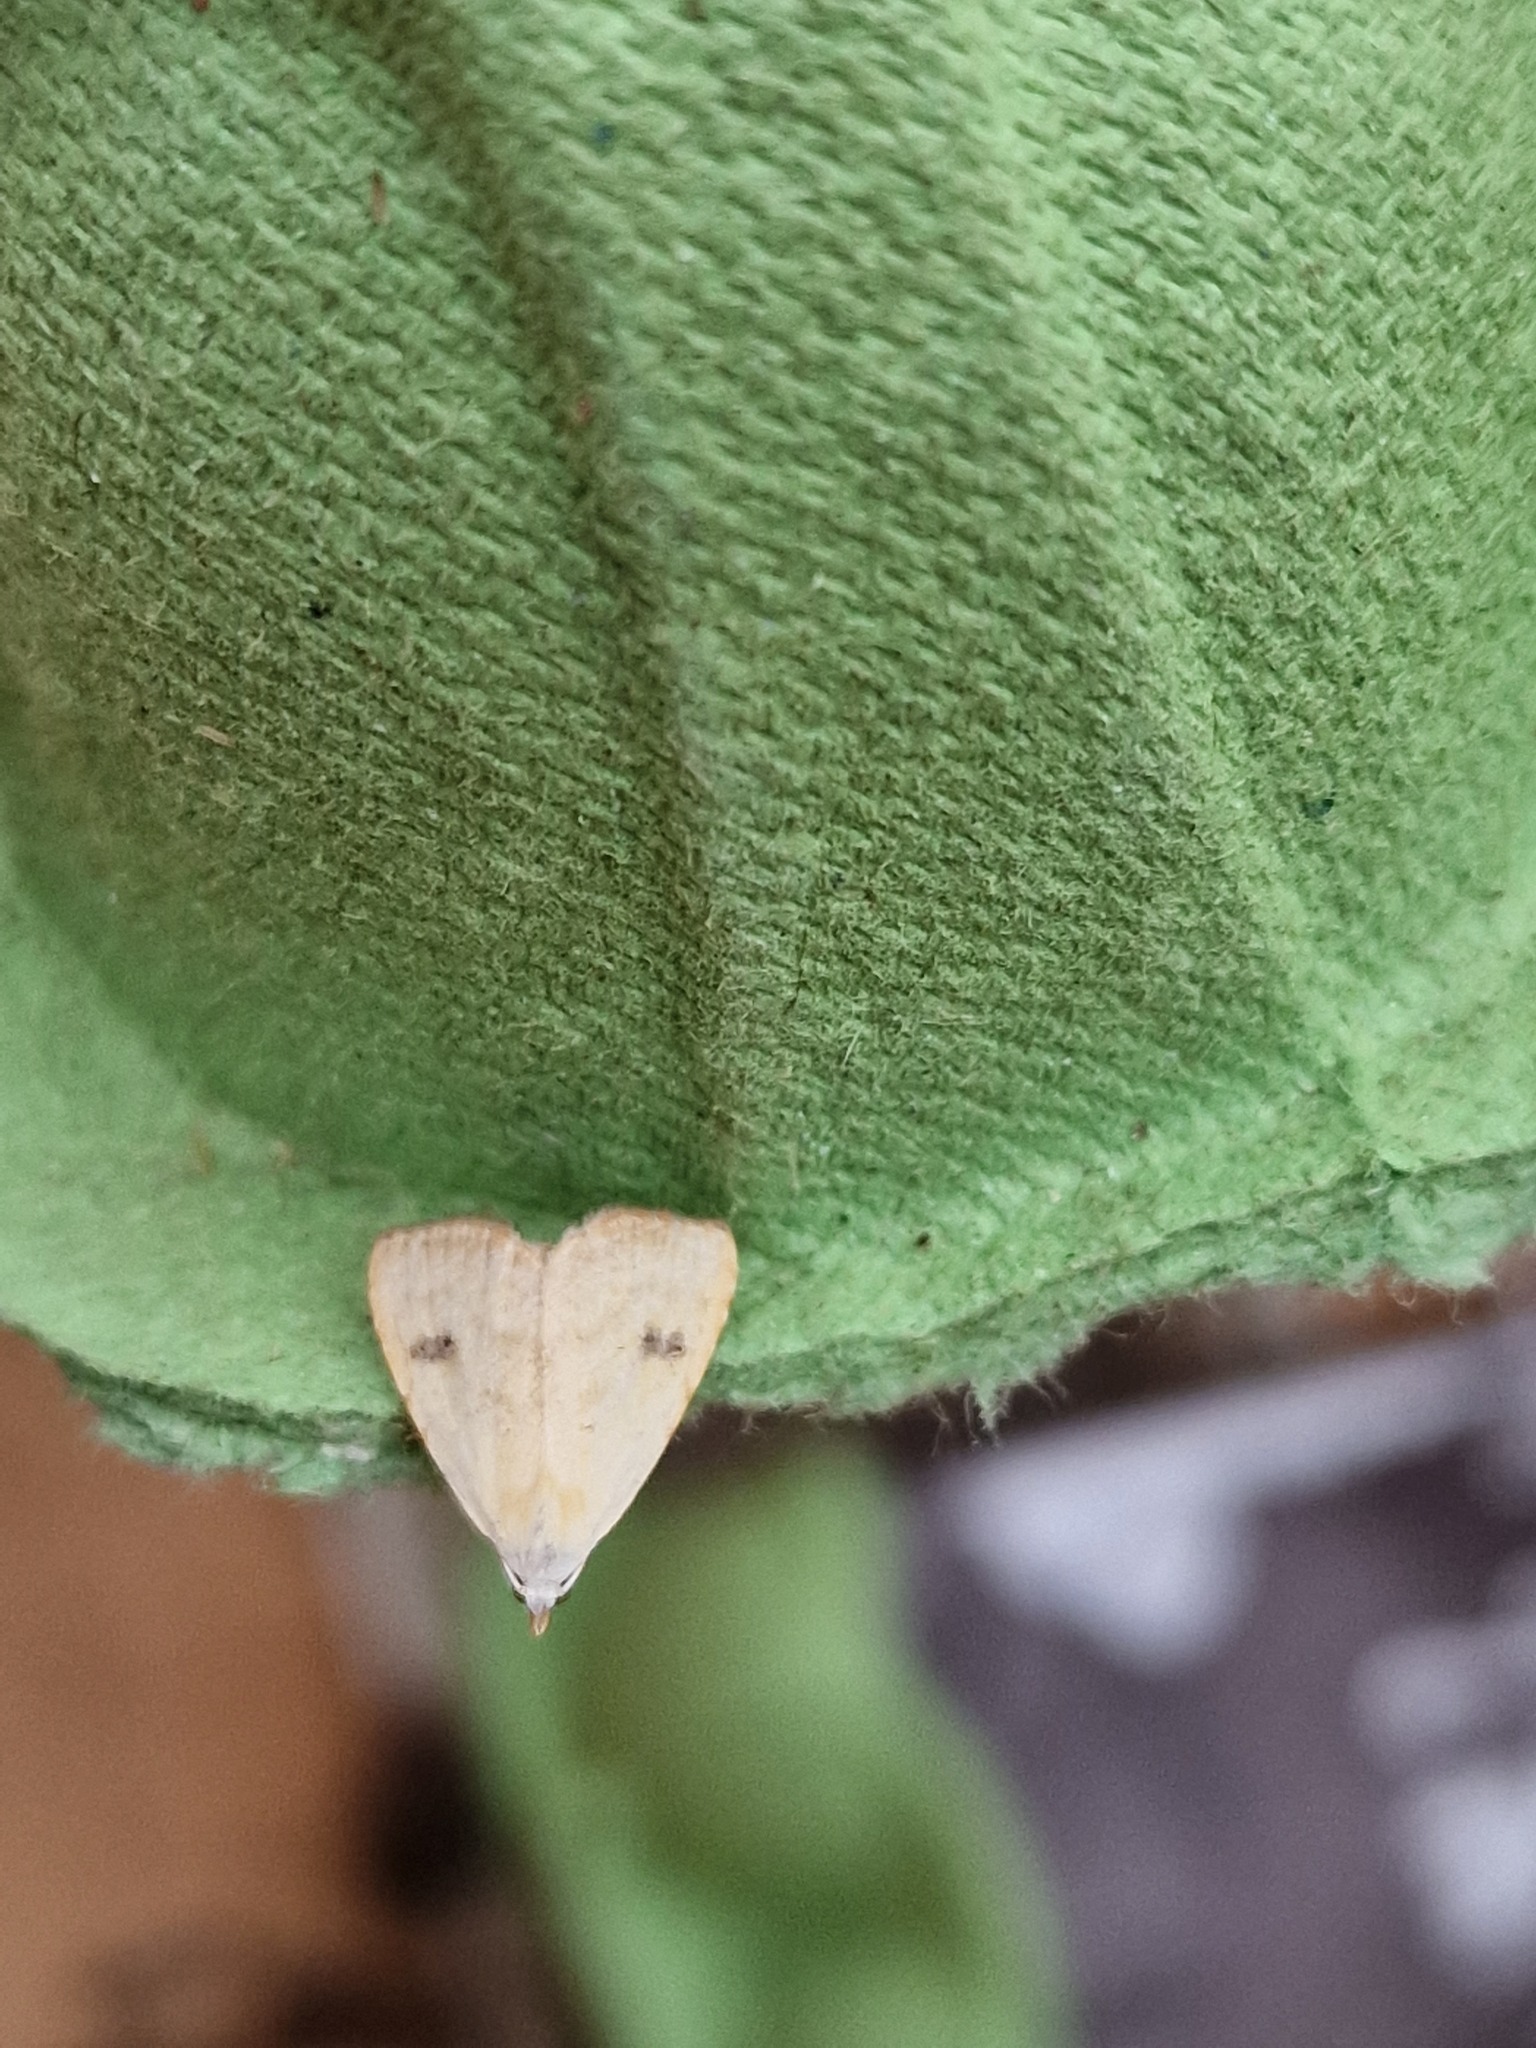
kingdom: Animalia
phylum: Arthropoda
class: Insecta
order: Lepidoptera
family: Erebidae
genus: Rivula
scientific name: Rivula sericealis
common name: Straw dot
